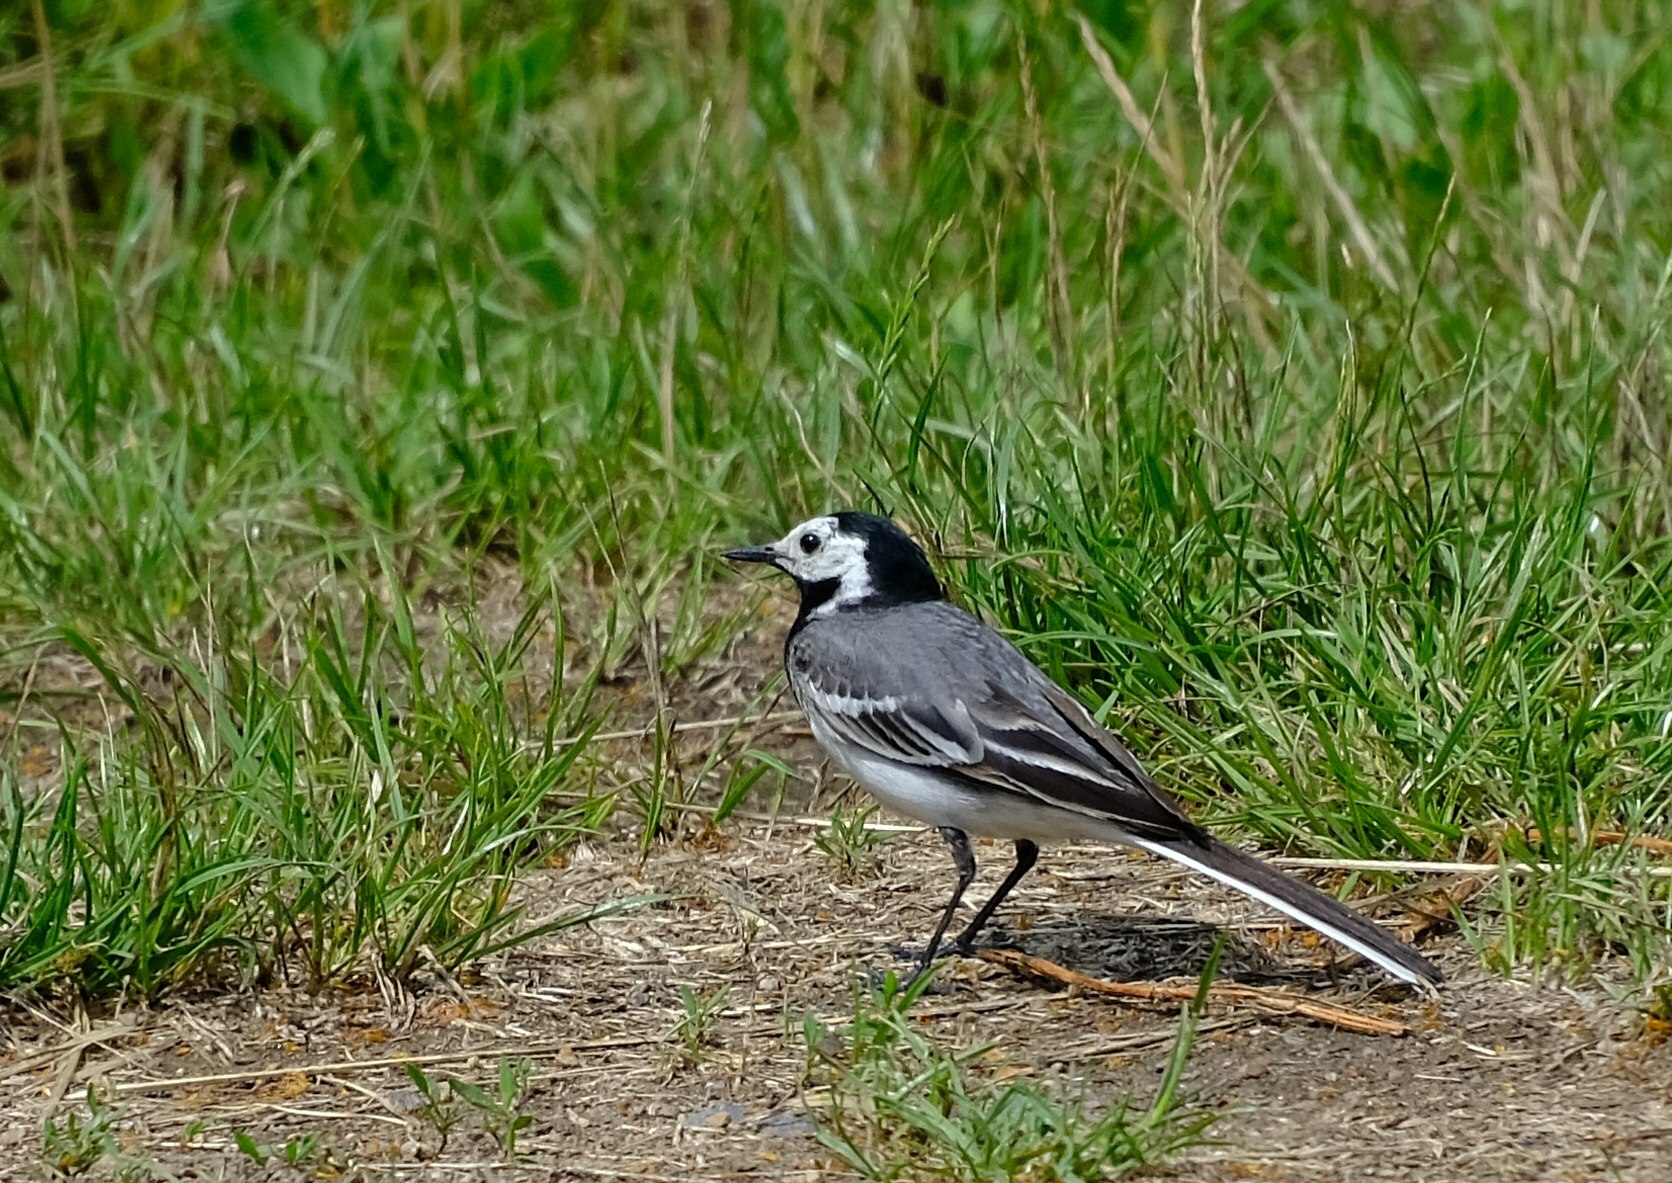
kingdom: Animalia
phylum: Chordata
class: Aves
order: Passeriformes
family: Motacillidae
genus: Motacilla
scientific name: Motacilla alba
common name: White wagtail
